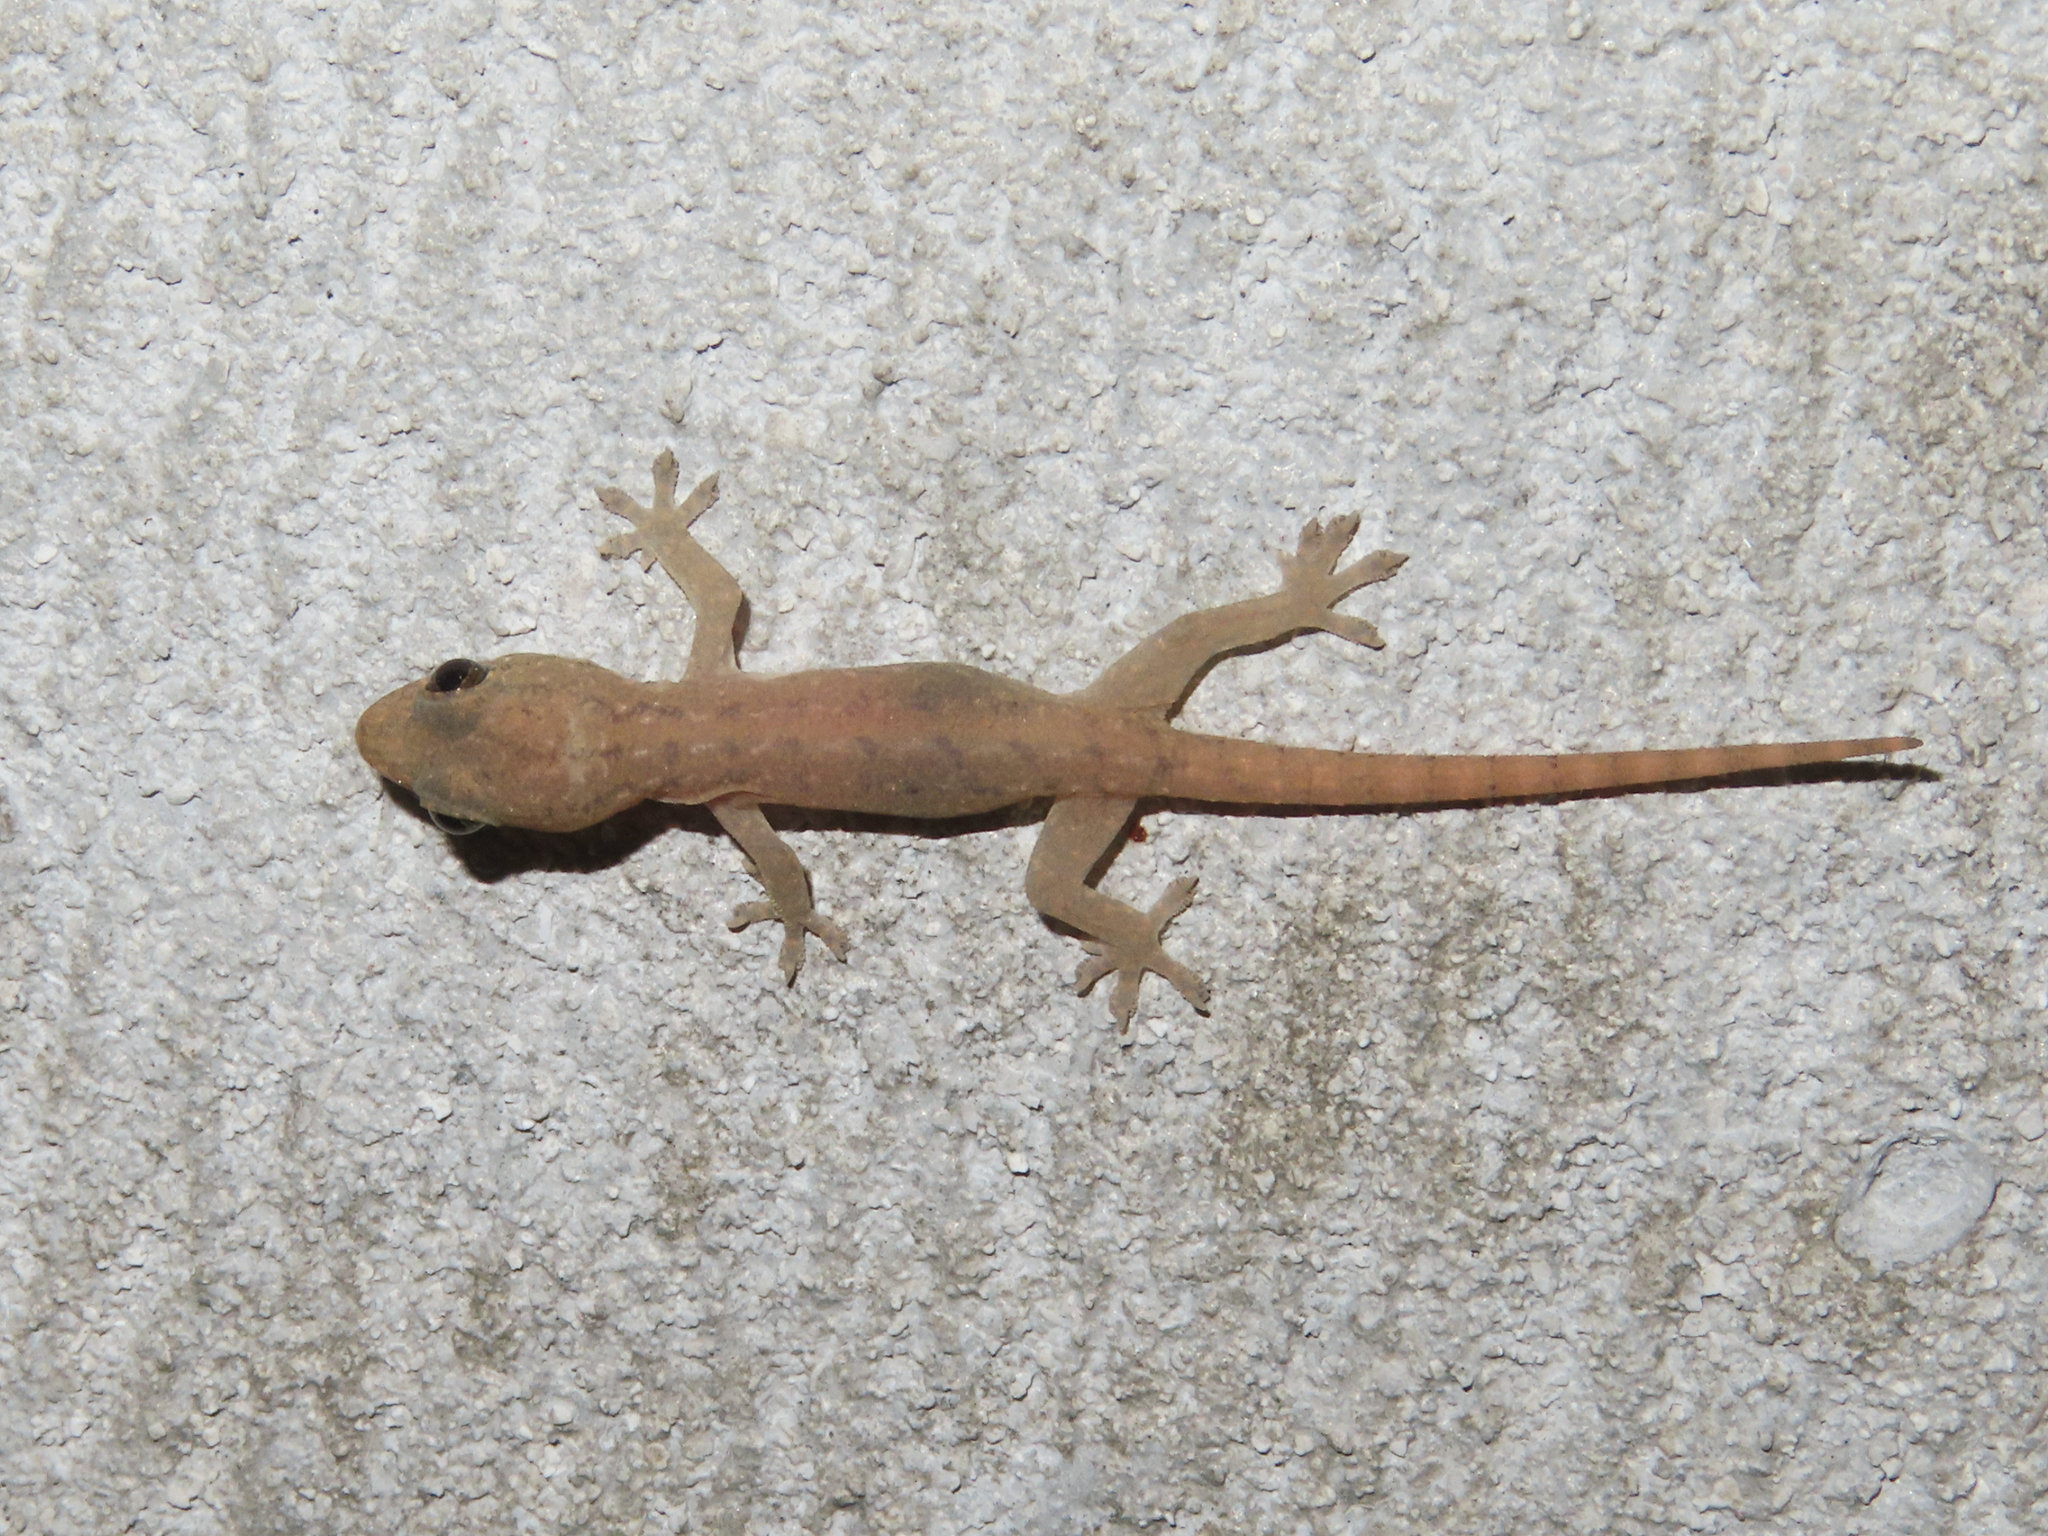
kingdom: Animalia
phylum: Chordata
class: Squamata
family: Gekkonidae
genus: Hemidactylus
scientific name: Hemidactylus frenatus
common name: Common house gecko
